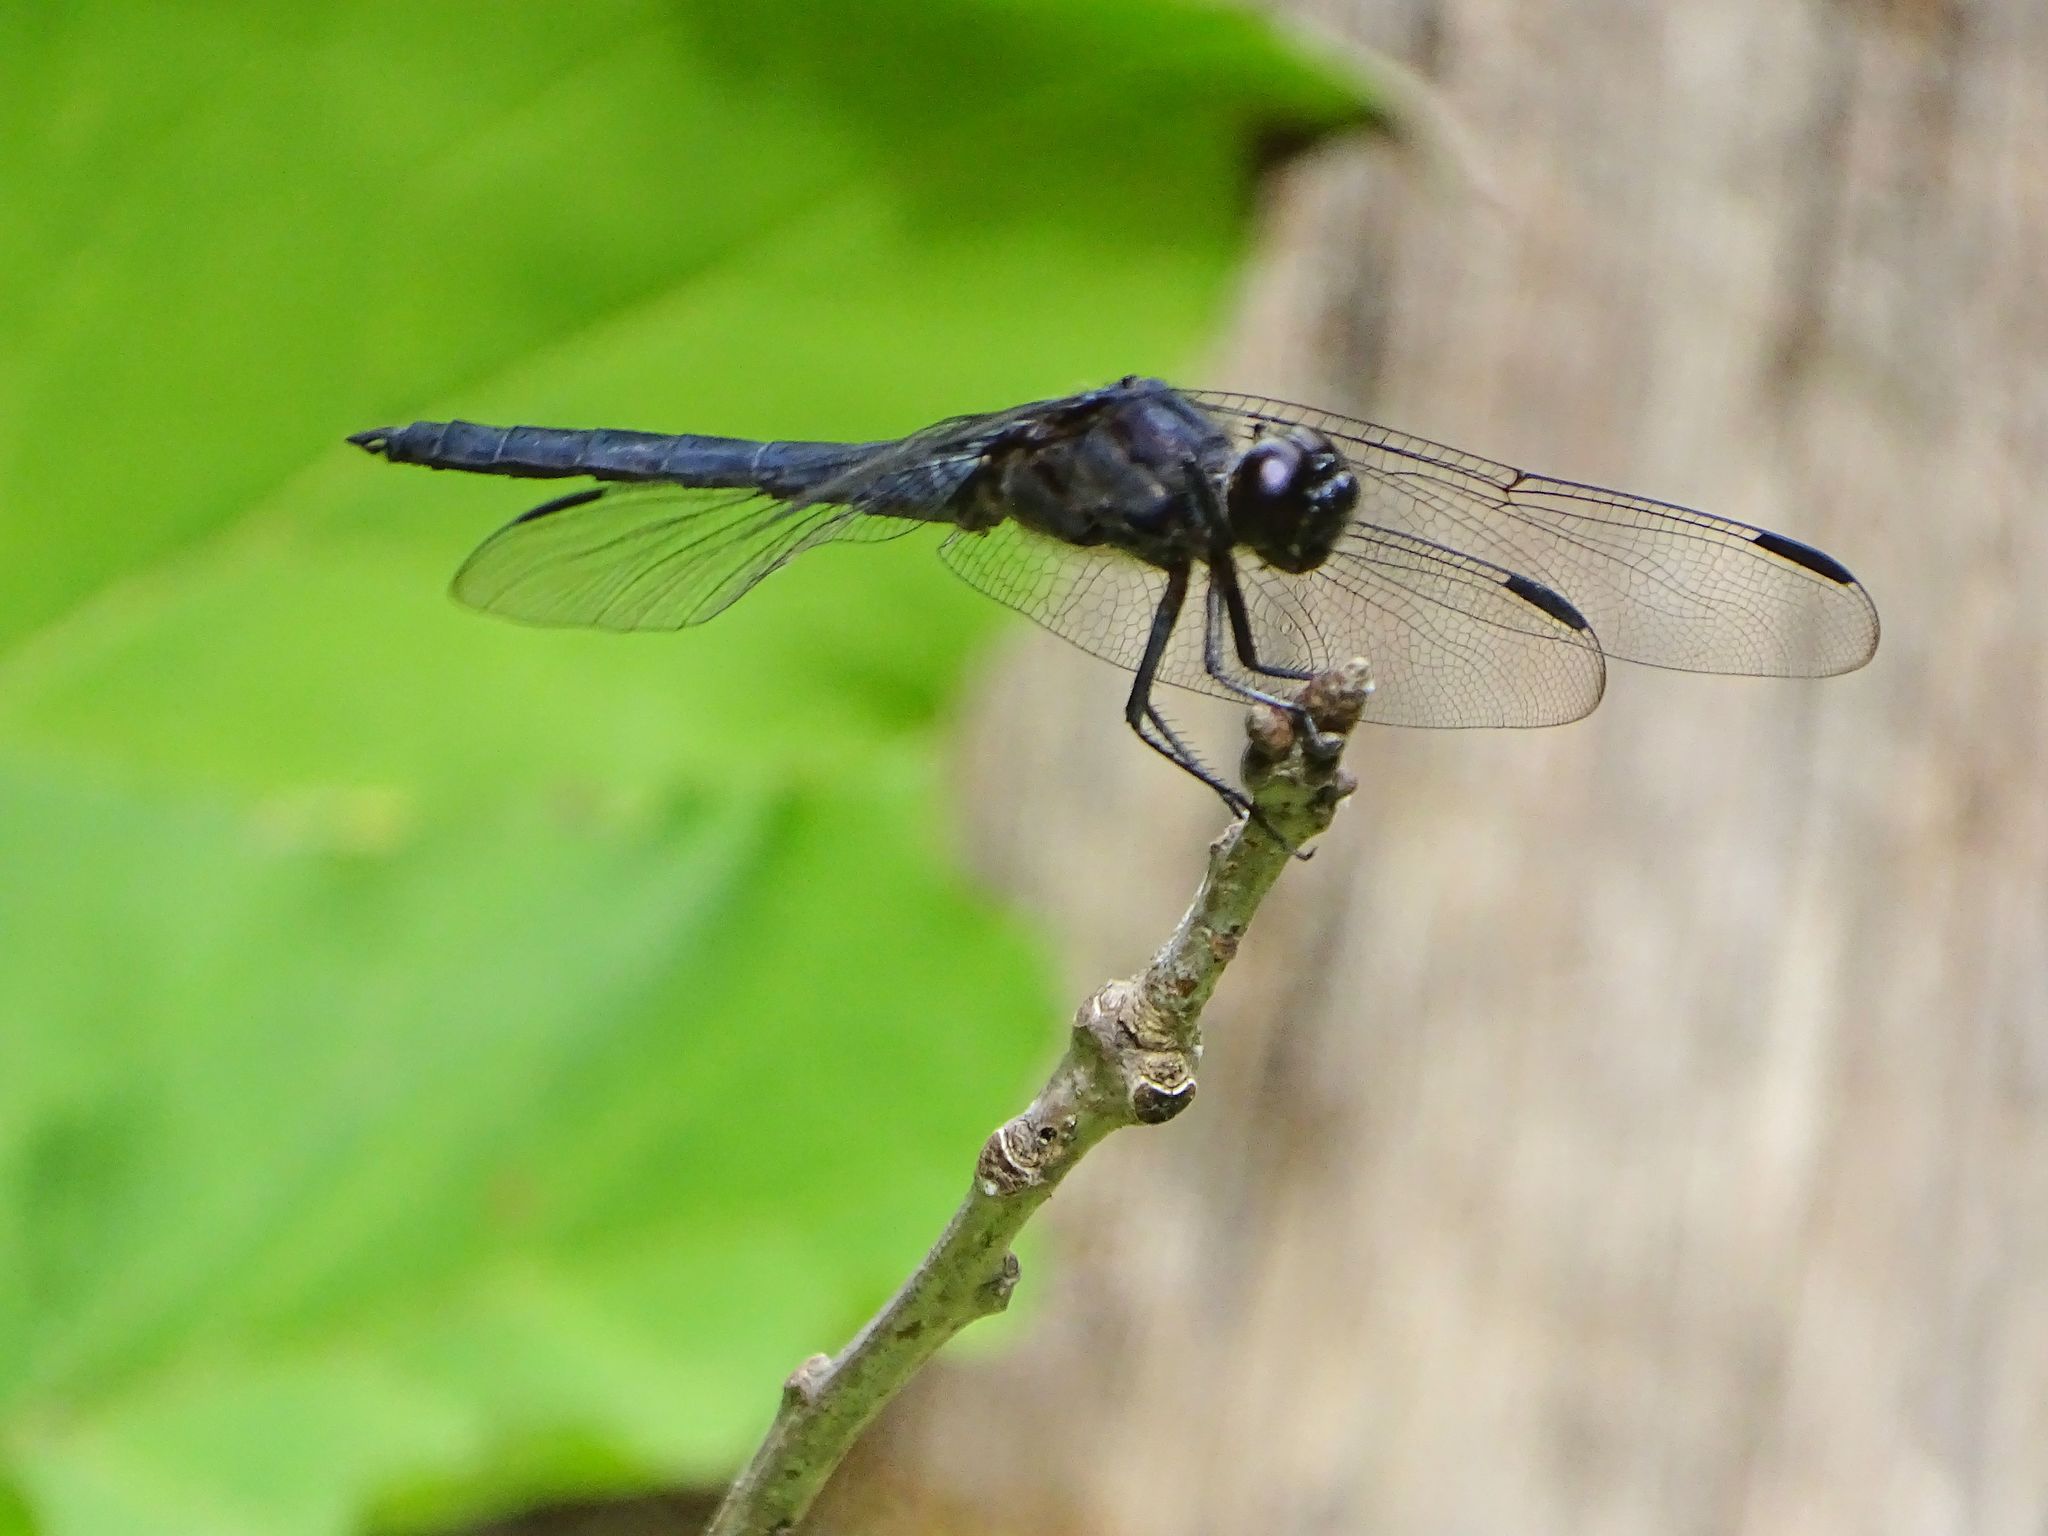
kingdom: Animalia
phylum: Arthropoda
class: Insecta
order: Odonata
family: Libellulidae
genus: Libellula
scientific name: Libellula incesta
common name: Slaty skimmer
